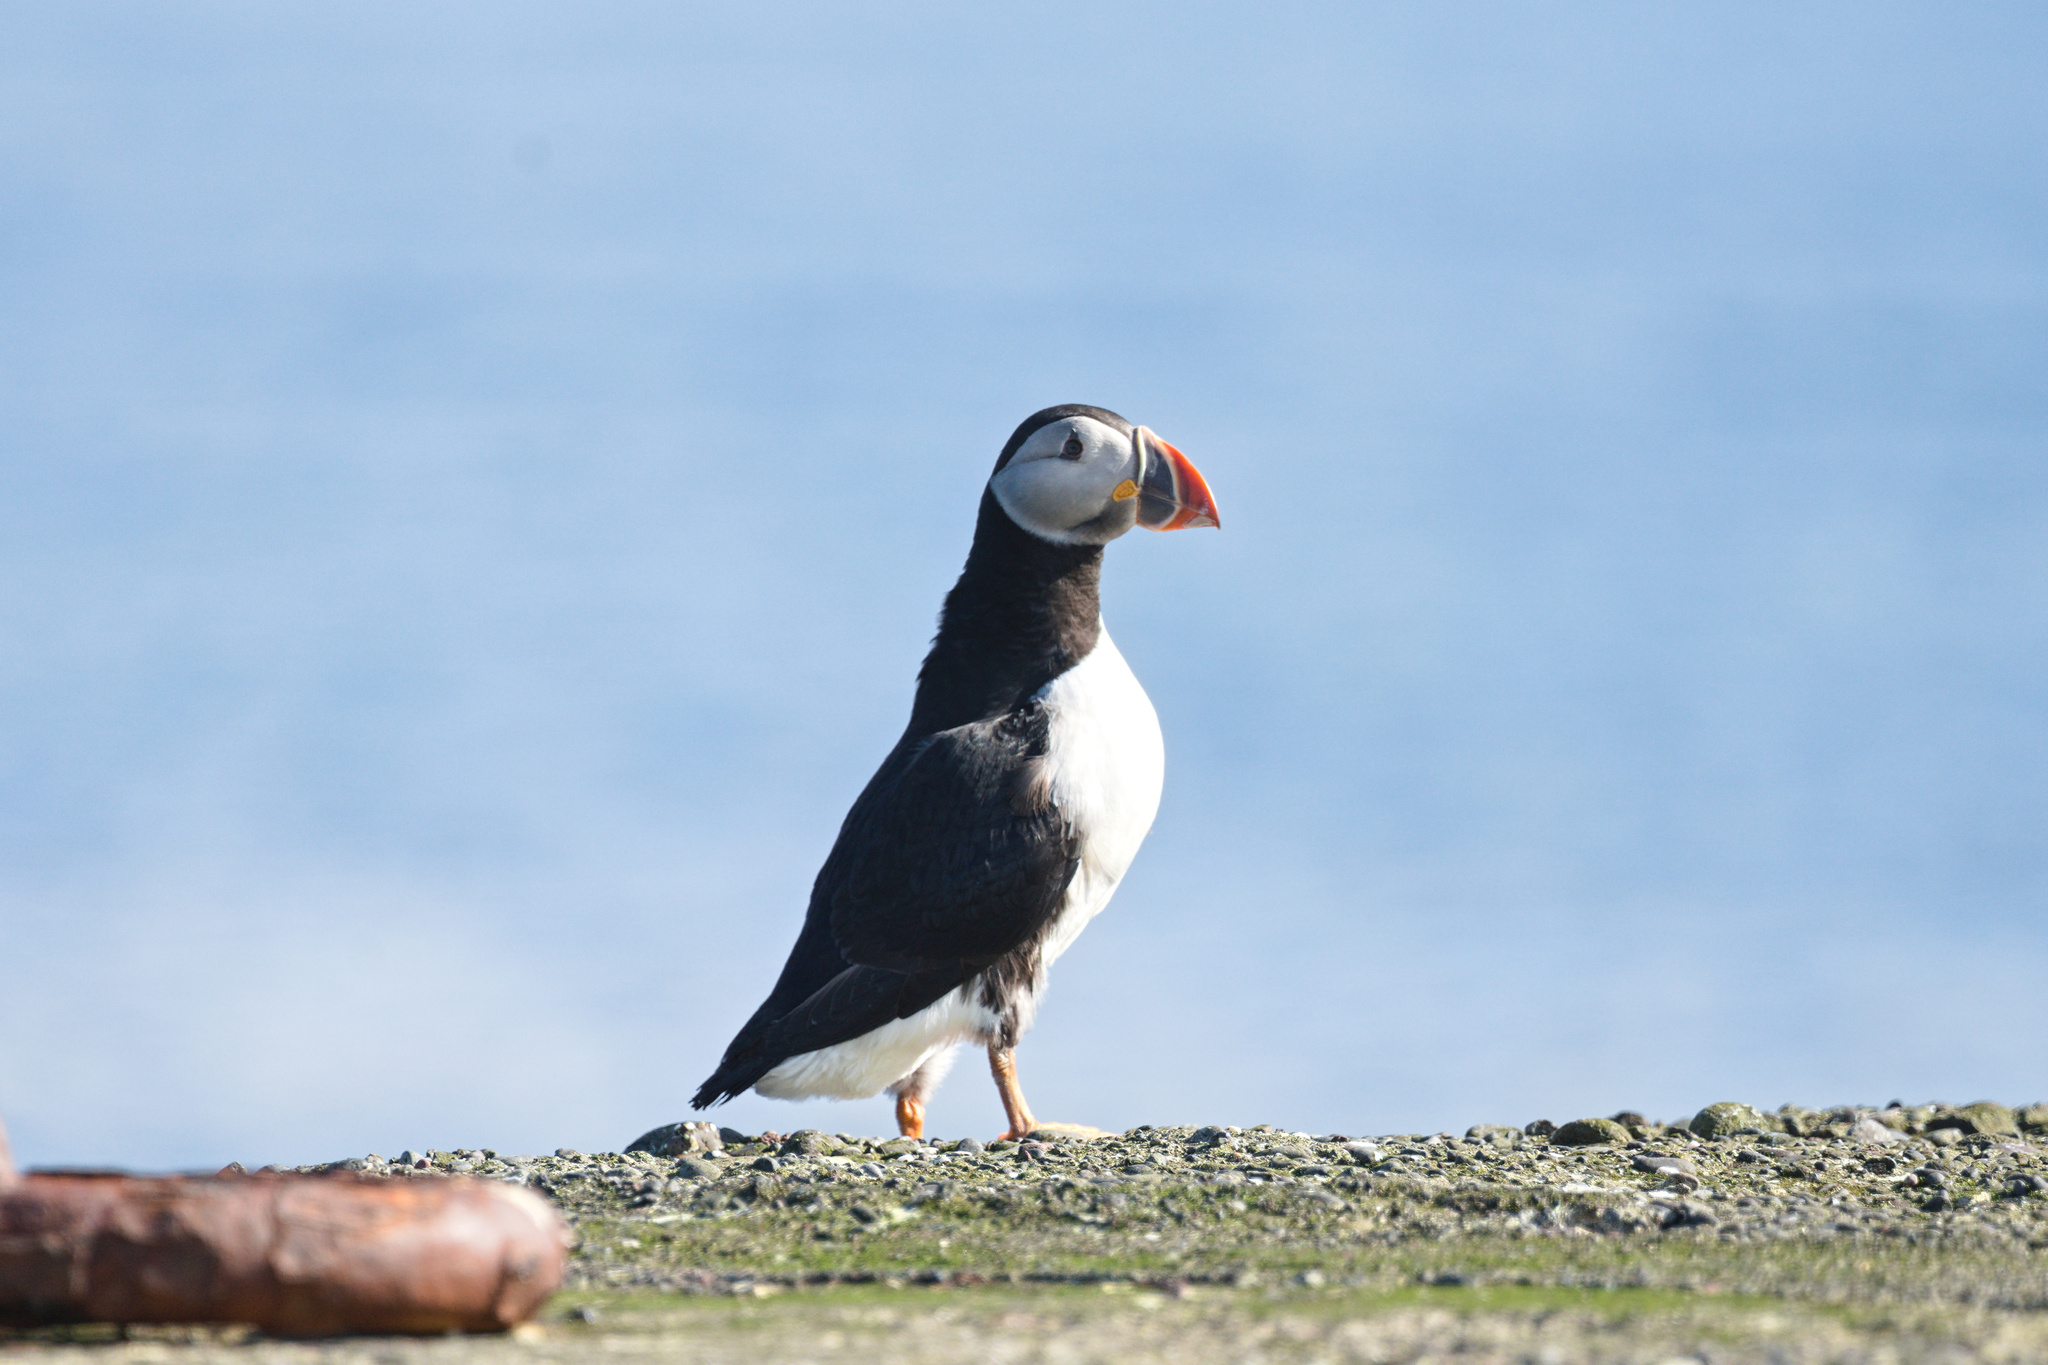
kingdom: Animalia
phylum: Chordata
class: Aves
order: Charadriiformes
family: Alcidae
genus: Fratercula
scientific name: Fratercula arctica
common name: Atlantic puffin
